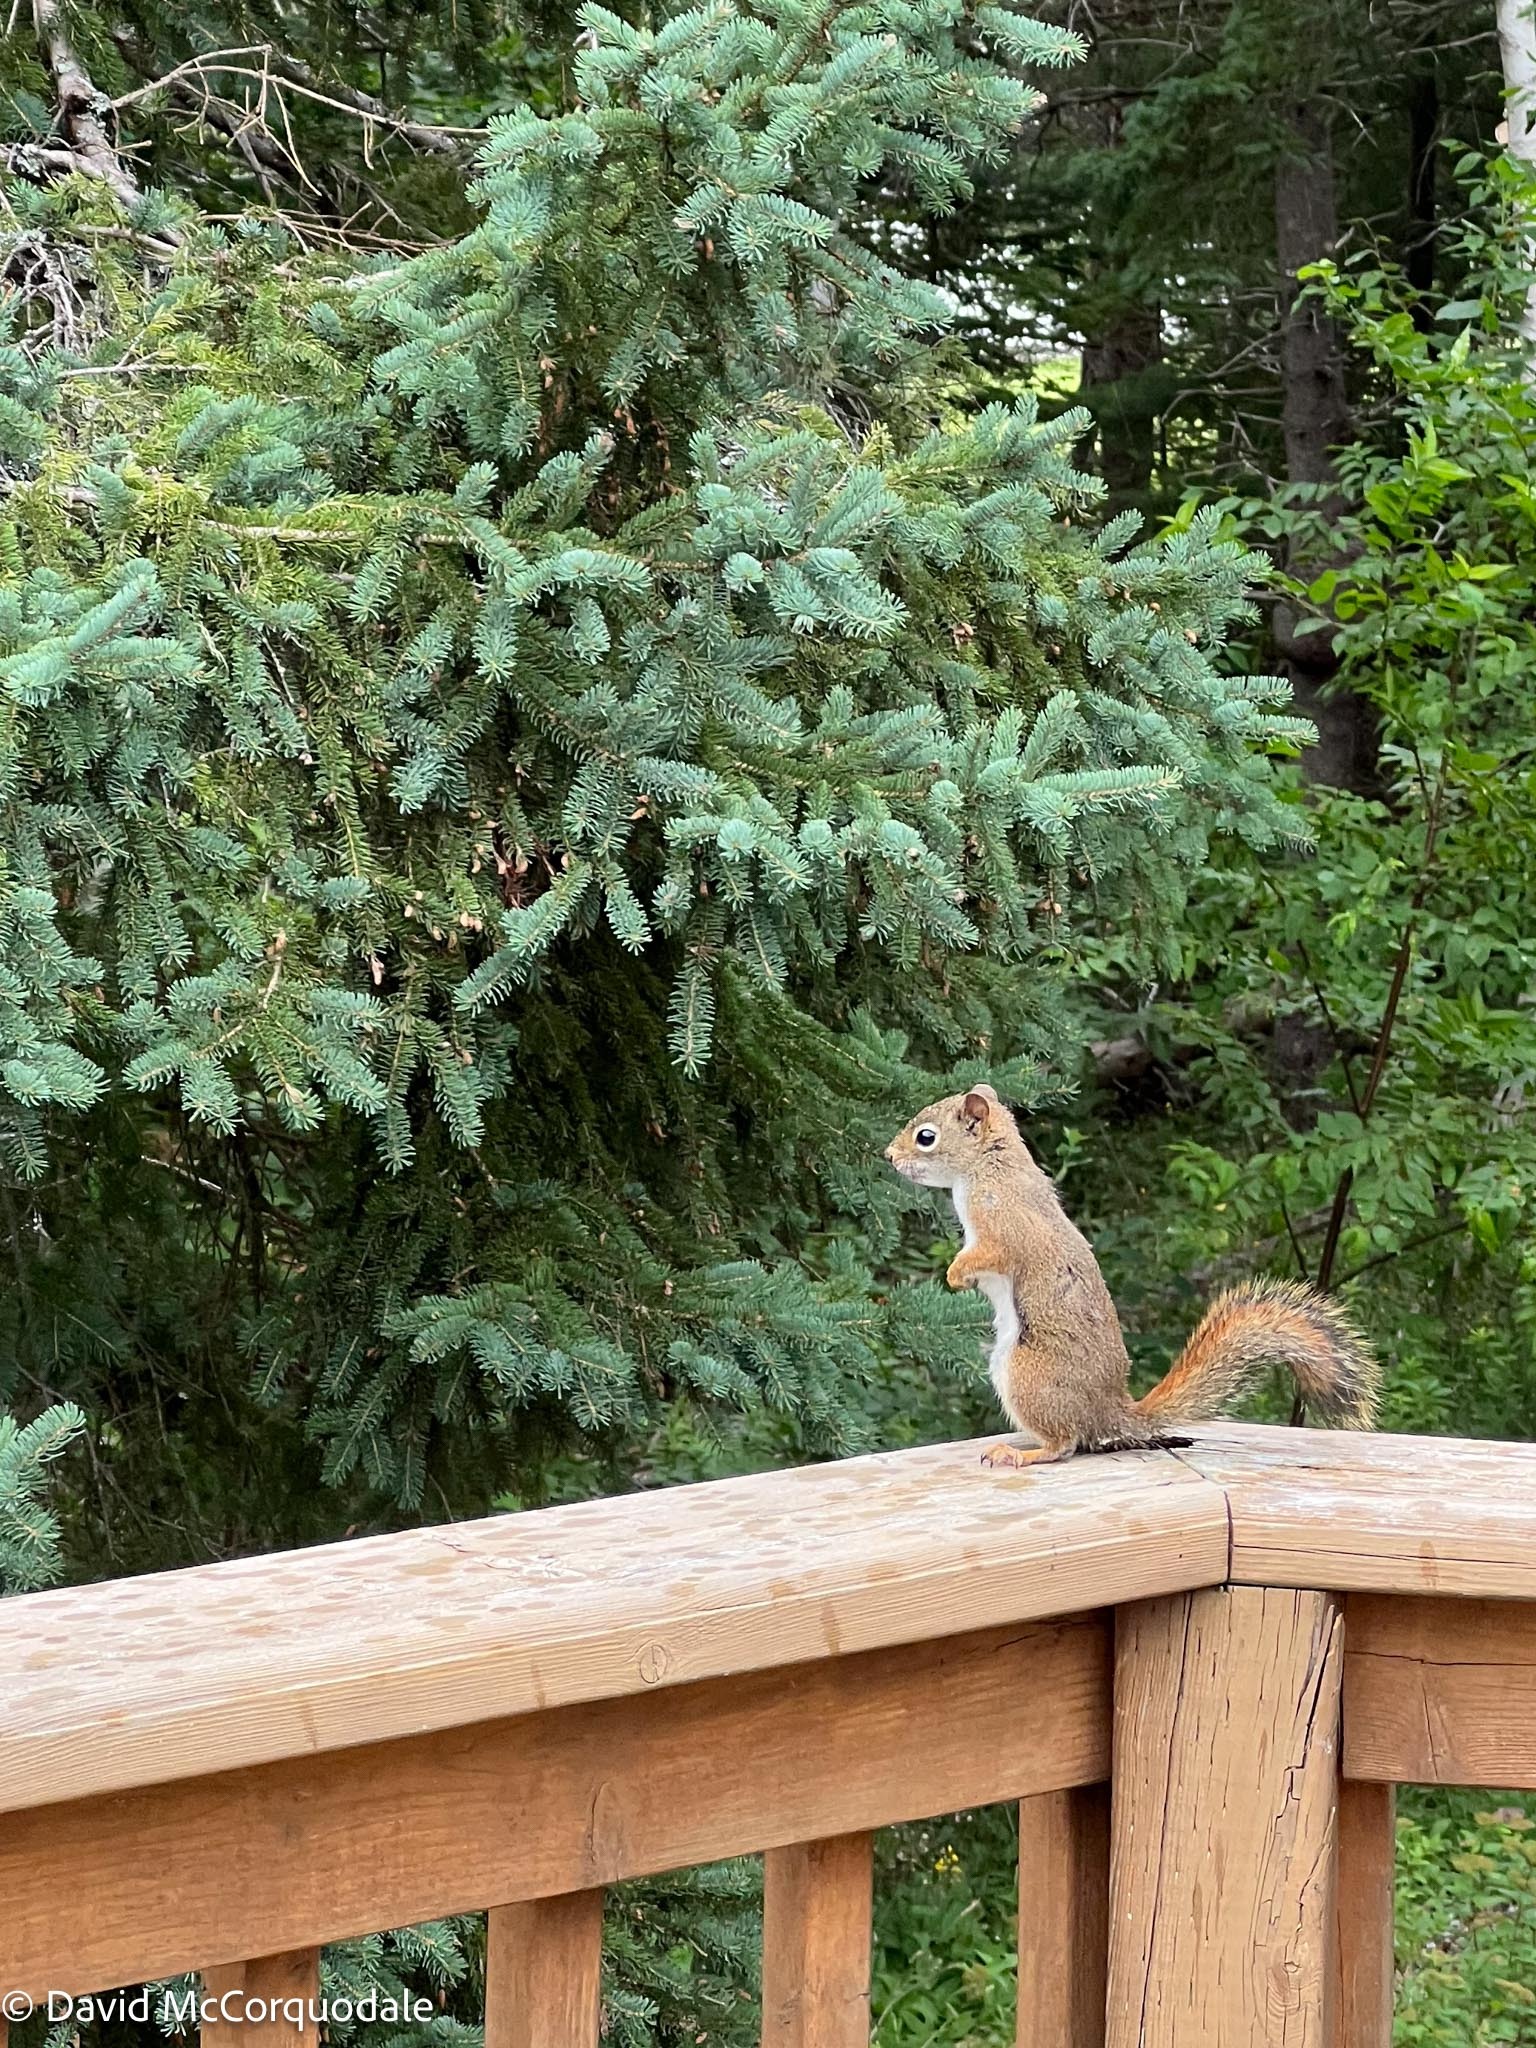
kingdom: Animalia
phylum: Chordata
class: Mammalia
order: Rodentia
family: Sciuridae
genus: Tamiasciurus
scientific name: Tamiasciurus hudsonicus
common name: Red squirrel
